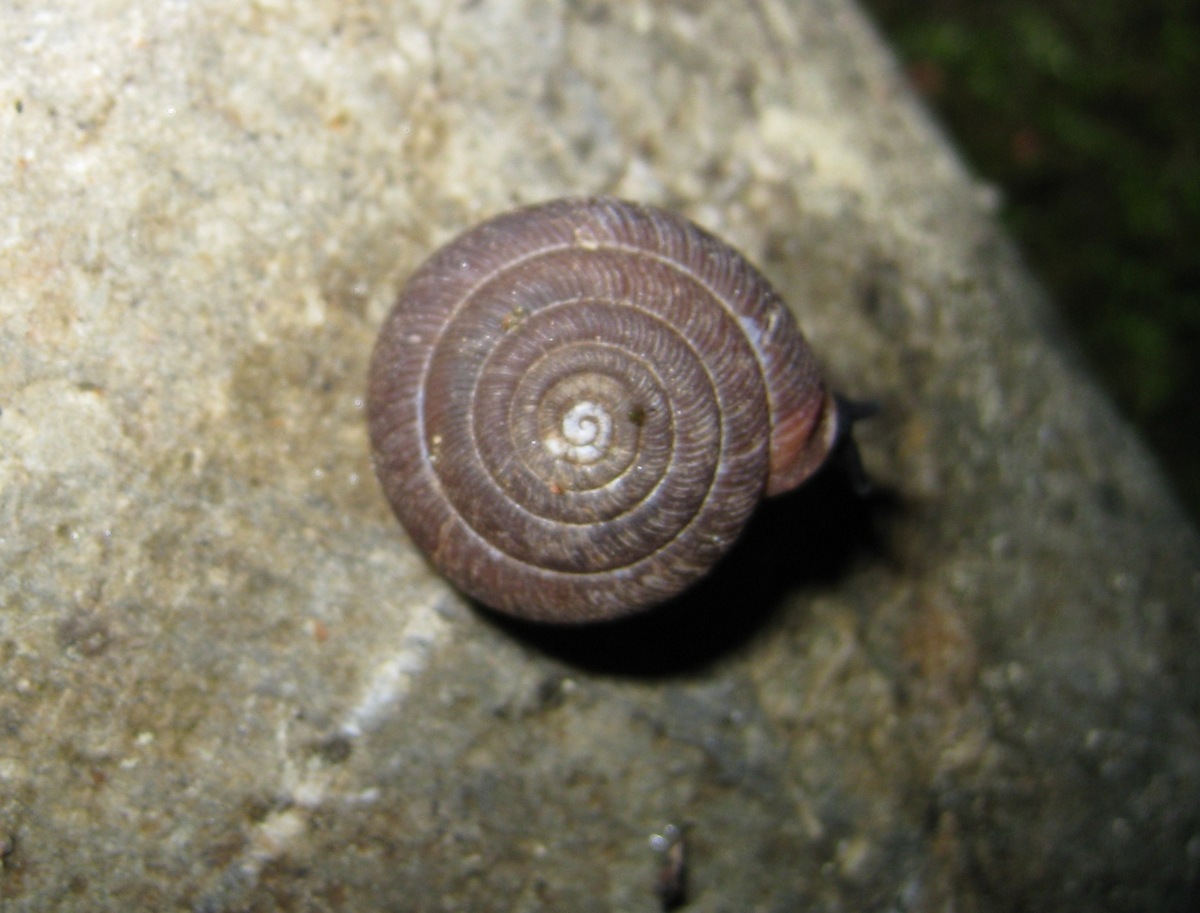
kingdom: Animalia
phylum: Mollusca
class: Gastropoda
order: Stylommatophora
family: Trissexodontidae
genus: Oestophora
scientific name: Oestophora barbella
